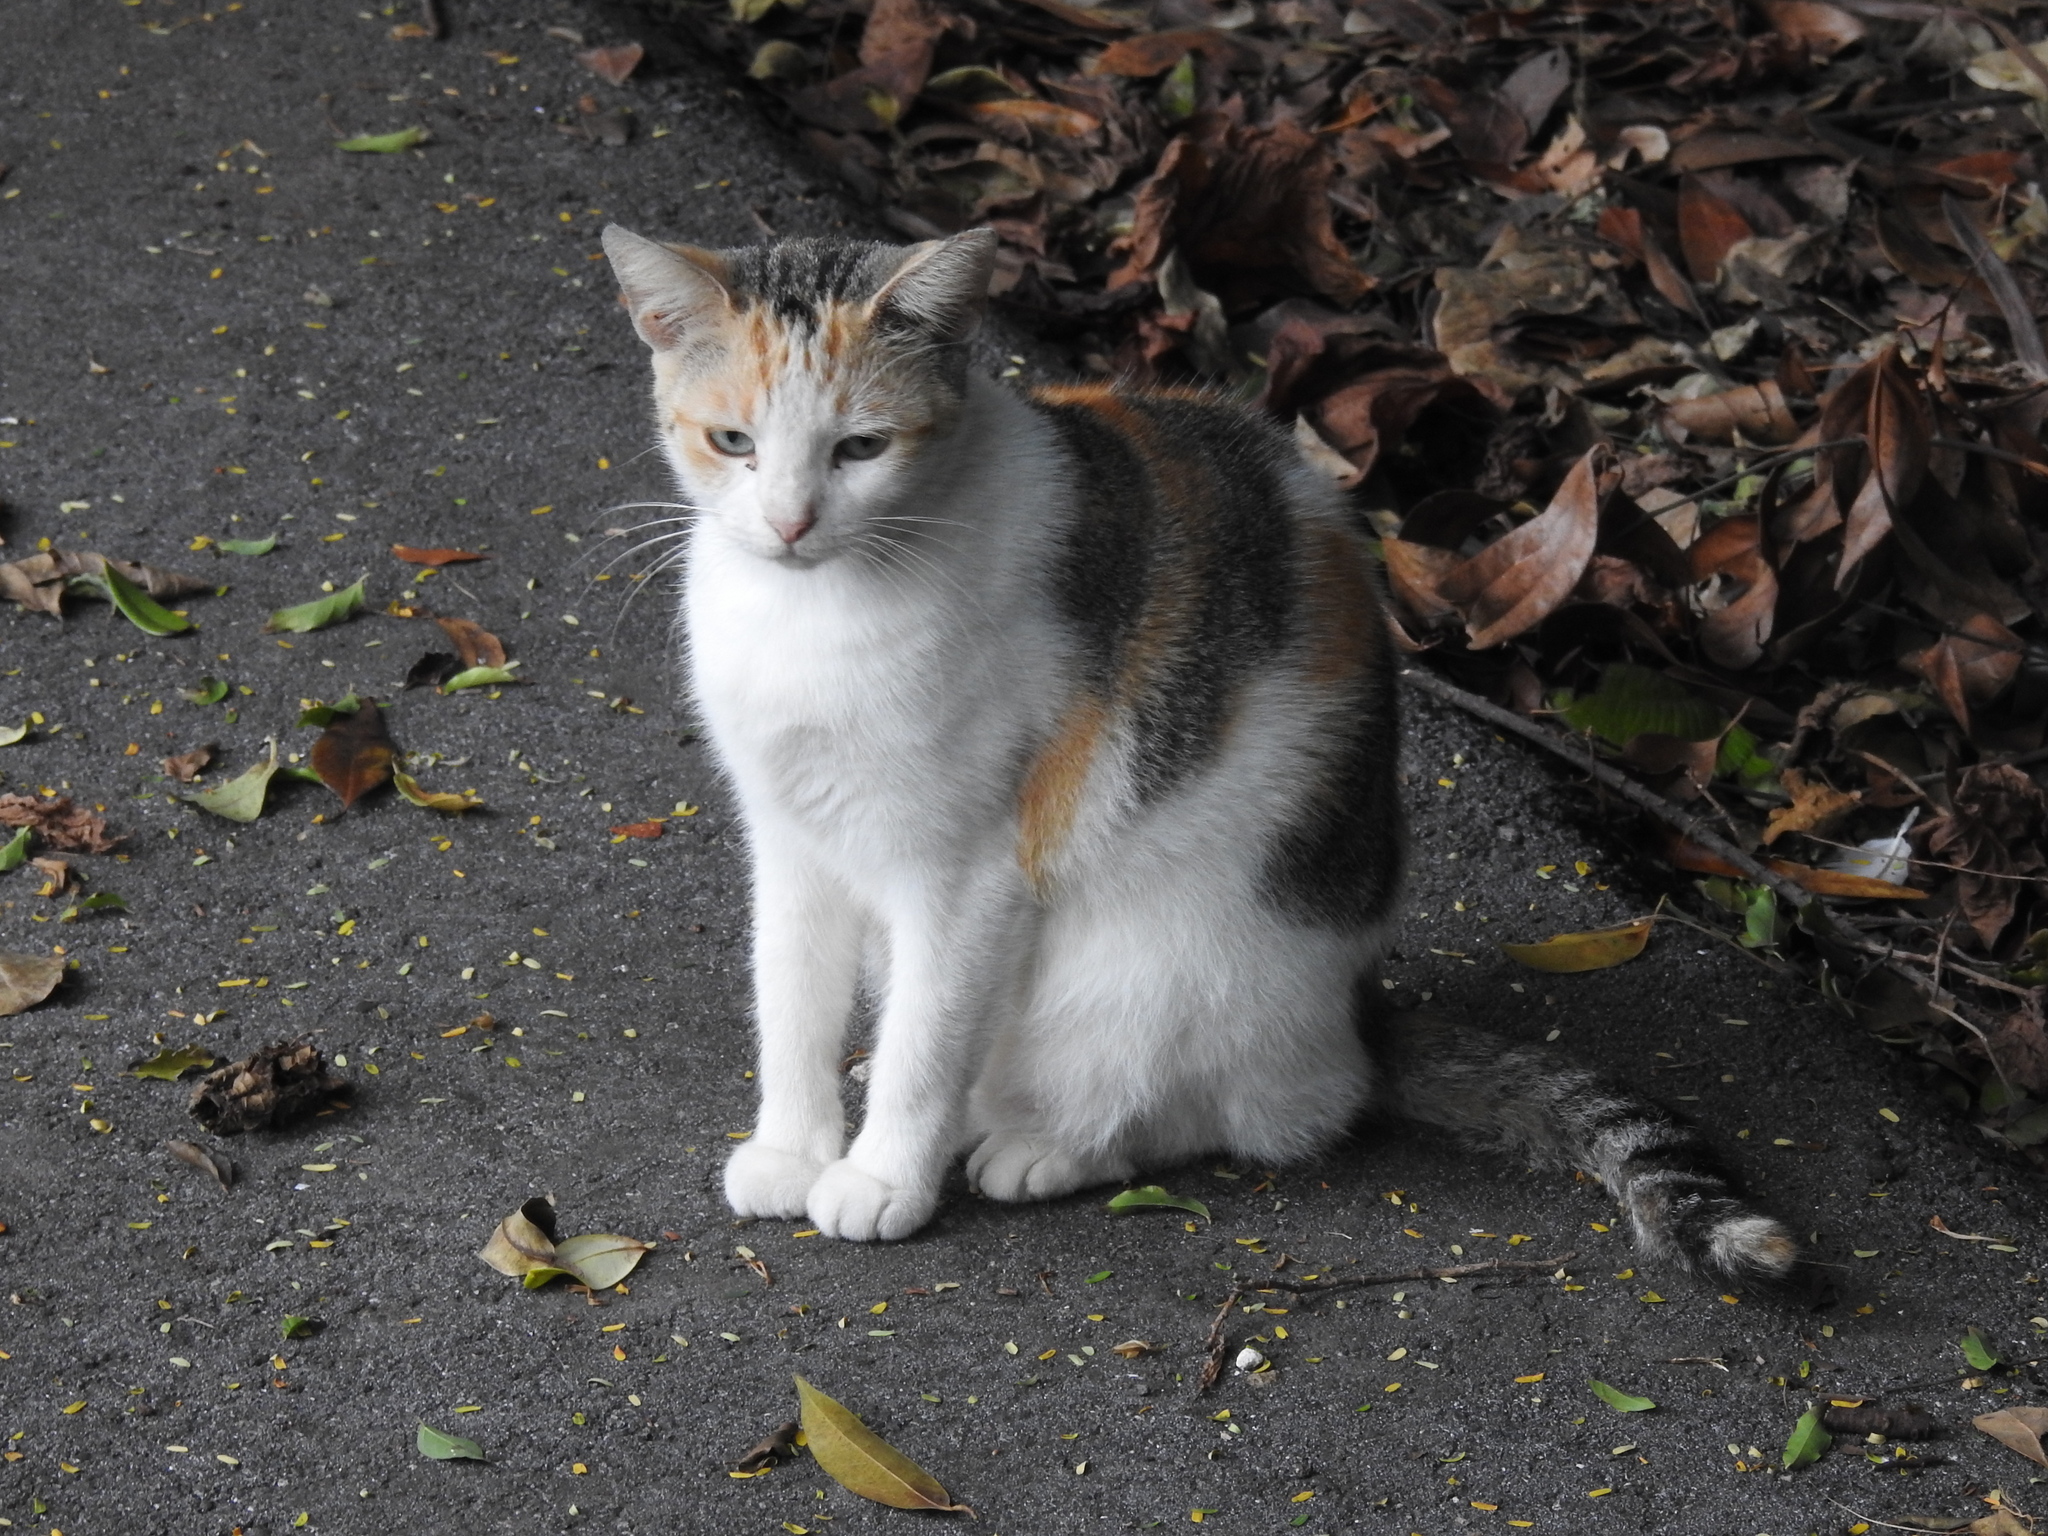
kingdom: Animalia
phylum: Chordata
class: Mammalia
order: Carnivora
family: Felidae
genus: Felis
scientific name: Felis catus
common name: Domestic cat
